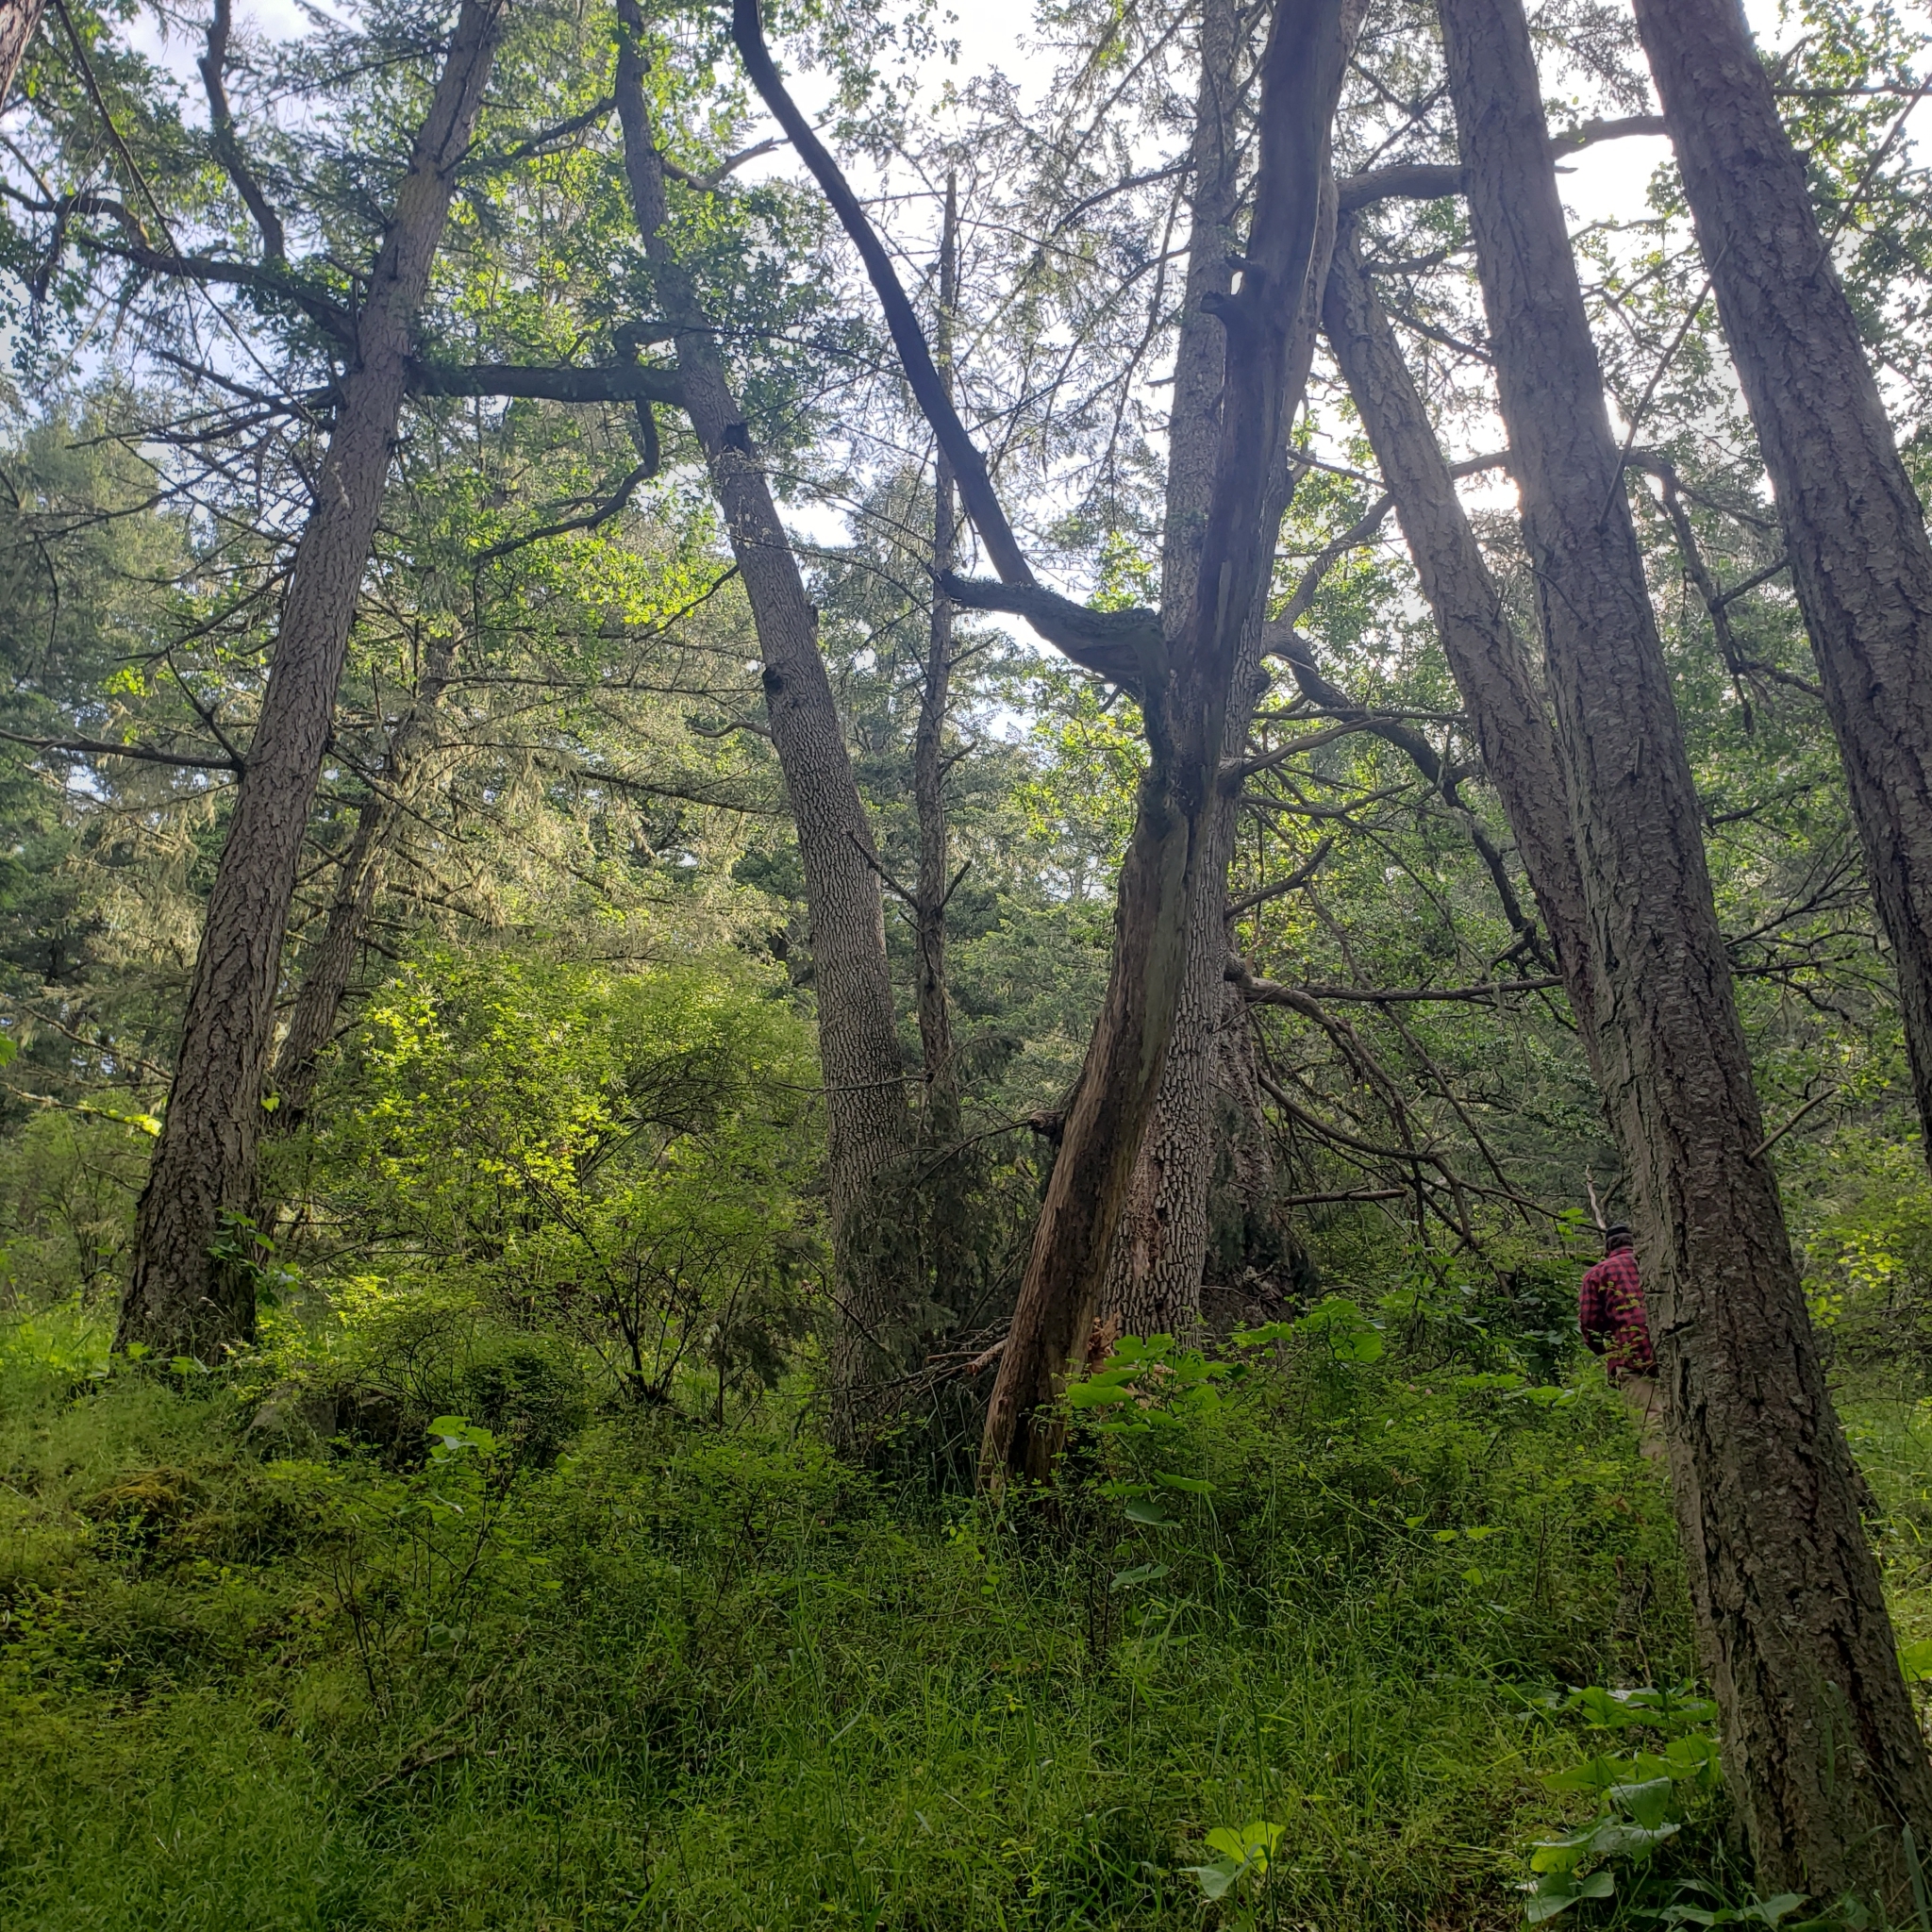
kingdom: Plantae
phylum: Tracheophyta
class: Magnoliopsida
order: Fagales
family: Fagaceae
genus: Quercus
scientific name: Quercus garryana
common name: Garry oak
